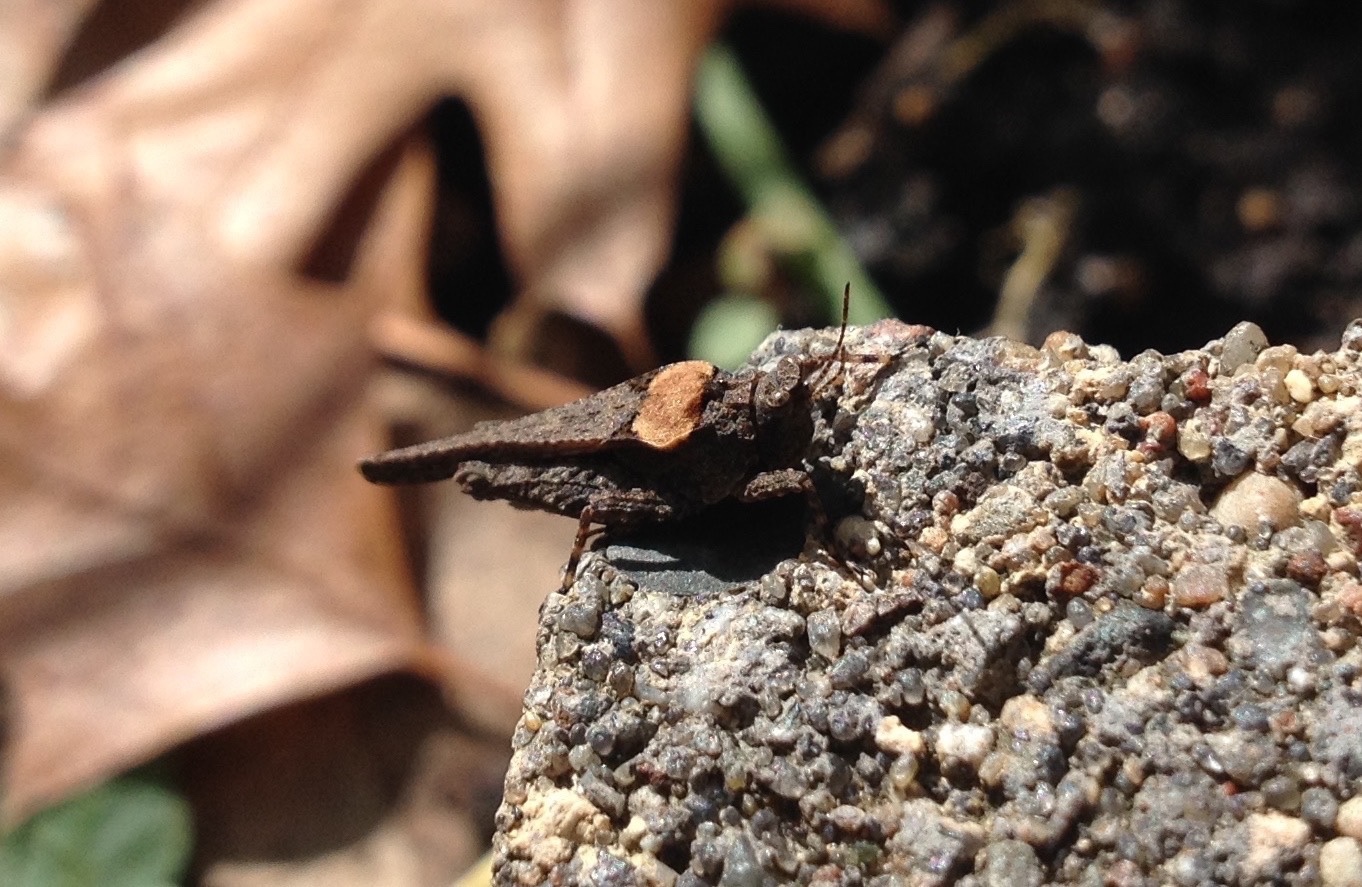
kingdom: Animalia
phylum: Arthropoda
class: Insecta
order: Orthoptera
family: Tetrigidae
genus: Tetrix
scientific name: Tetrix arenosa
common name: Ornate pygmy grasshopper
